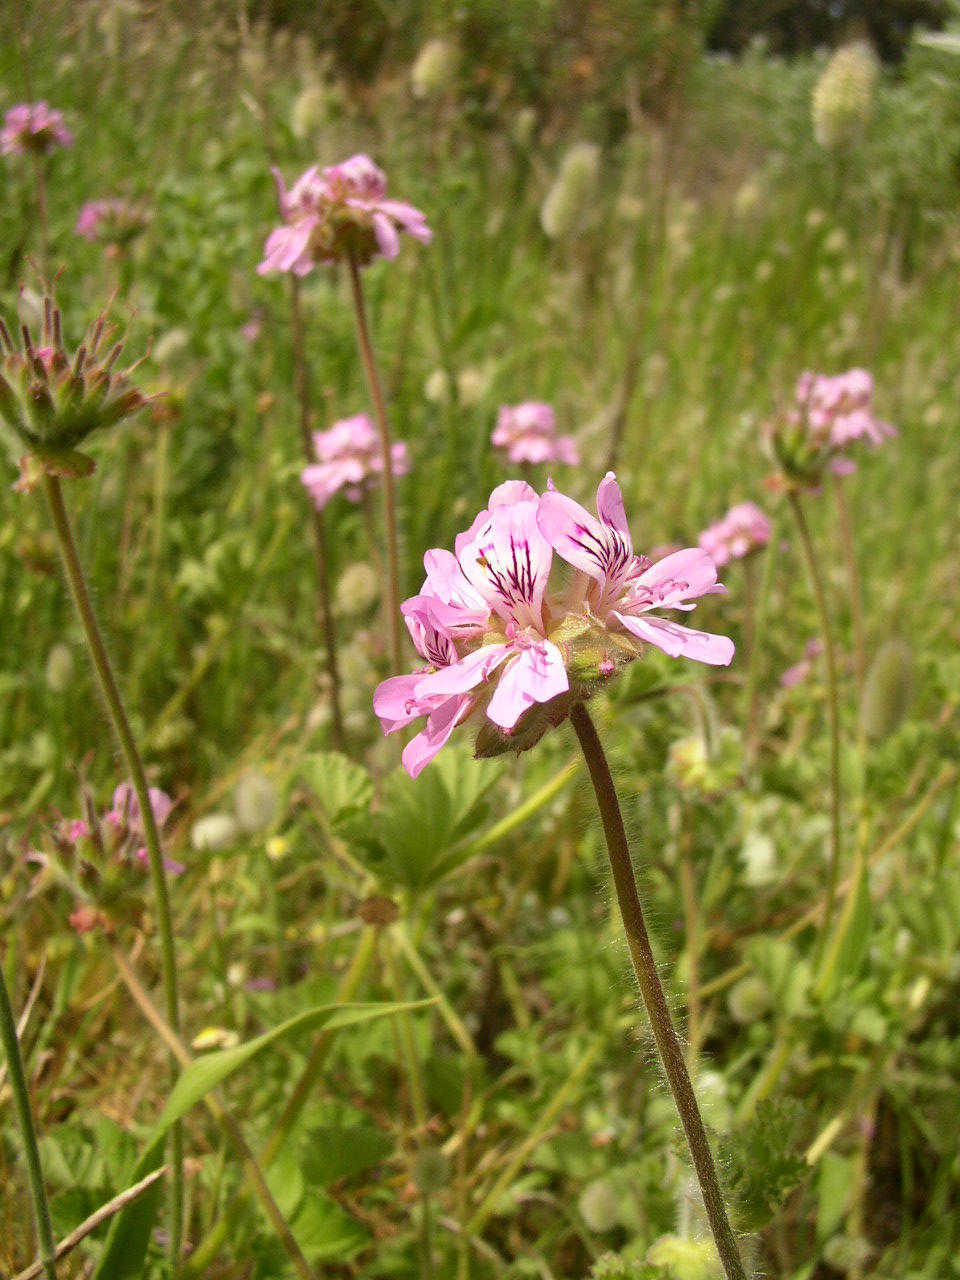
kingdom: Plantae
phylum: Tracheophyta
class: Magnoliopsida
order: Geraniales
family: Geraniaceae
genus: Pelargonium
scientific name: Pelargonium capitatum
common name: Rose scented geranium
